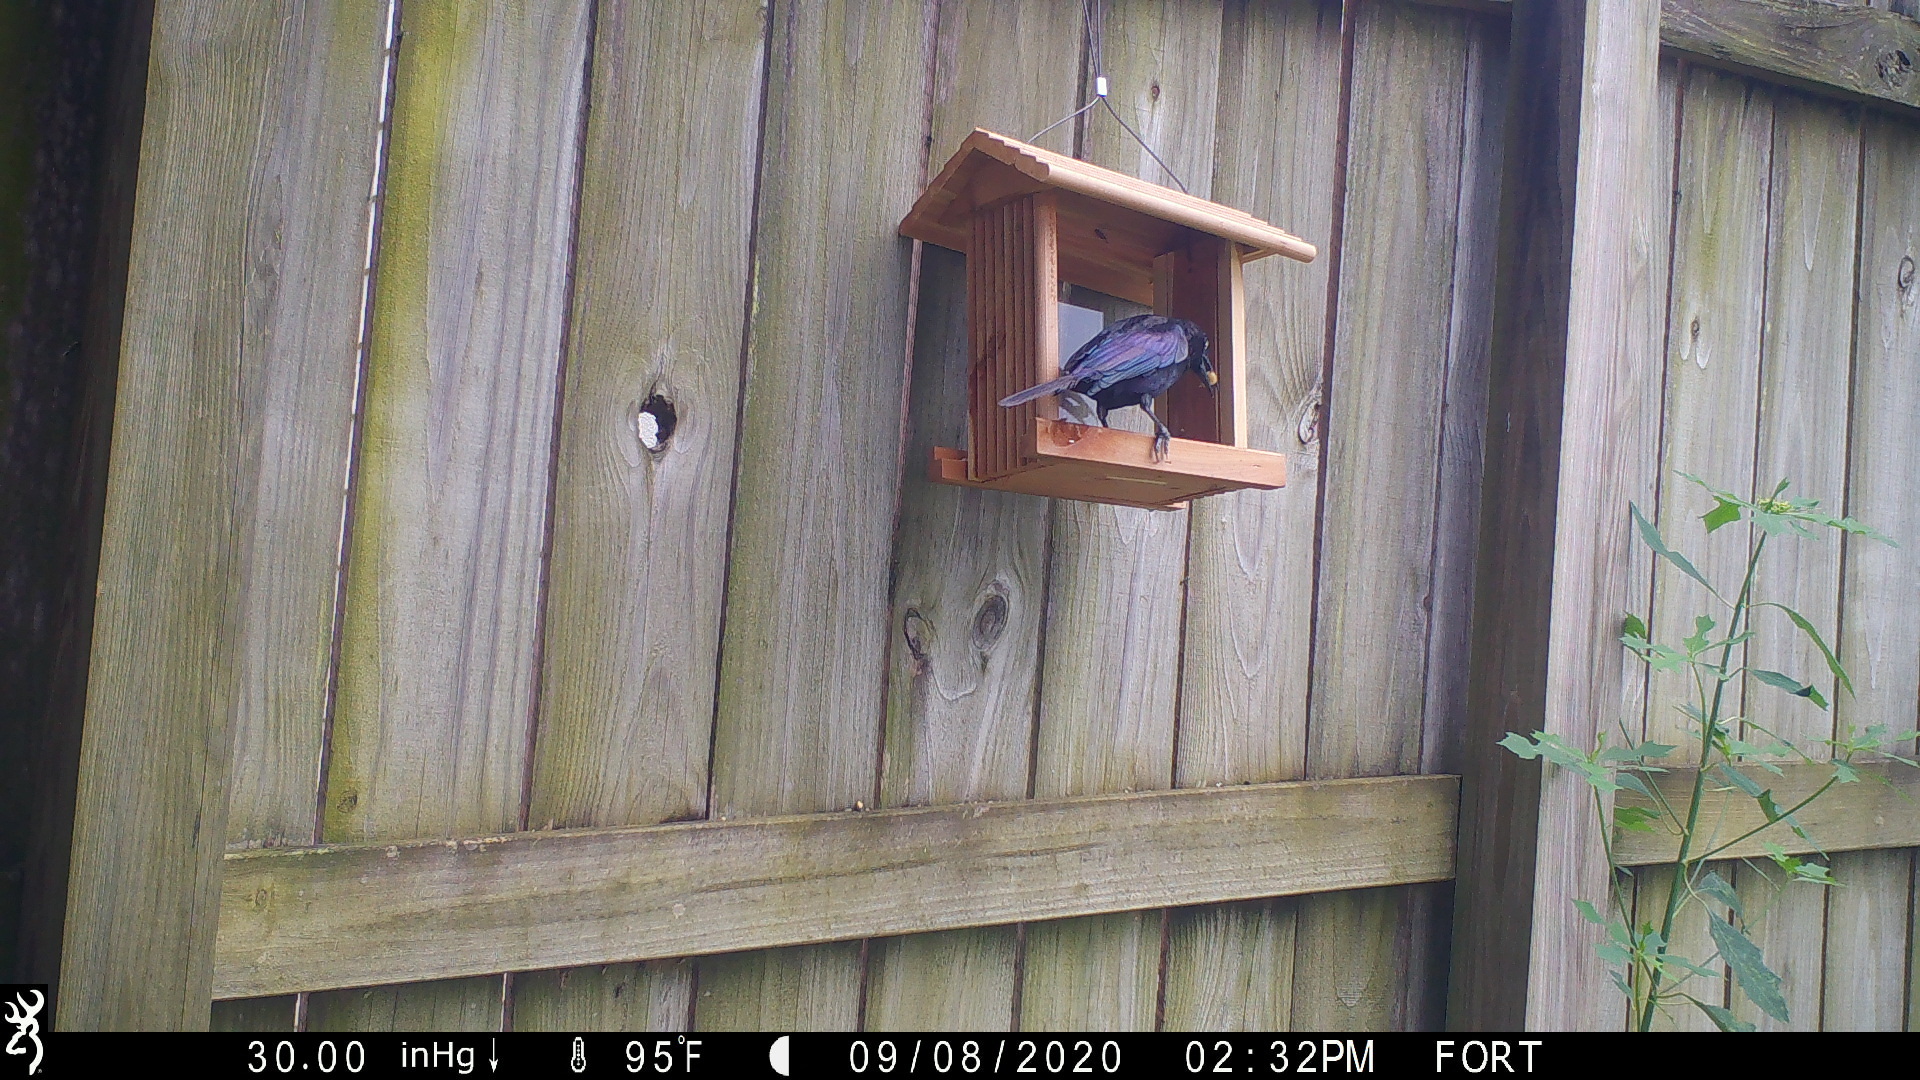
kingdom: Animalia
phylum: Chordata
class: Aves
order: Passeriformes
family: Icteridae
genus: Quiscalus
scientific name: Quiscalus quiscula
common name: Common grackle
